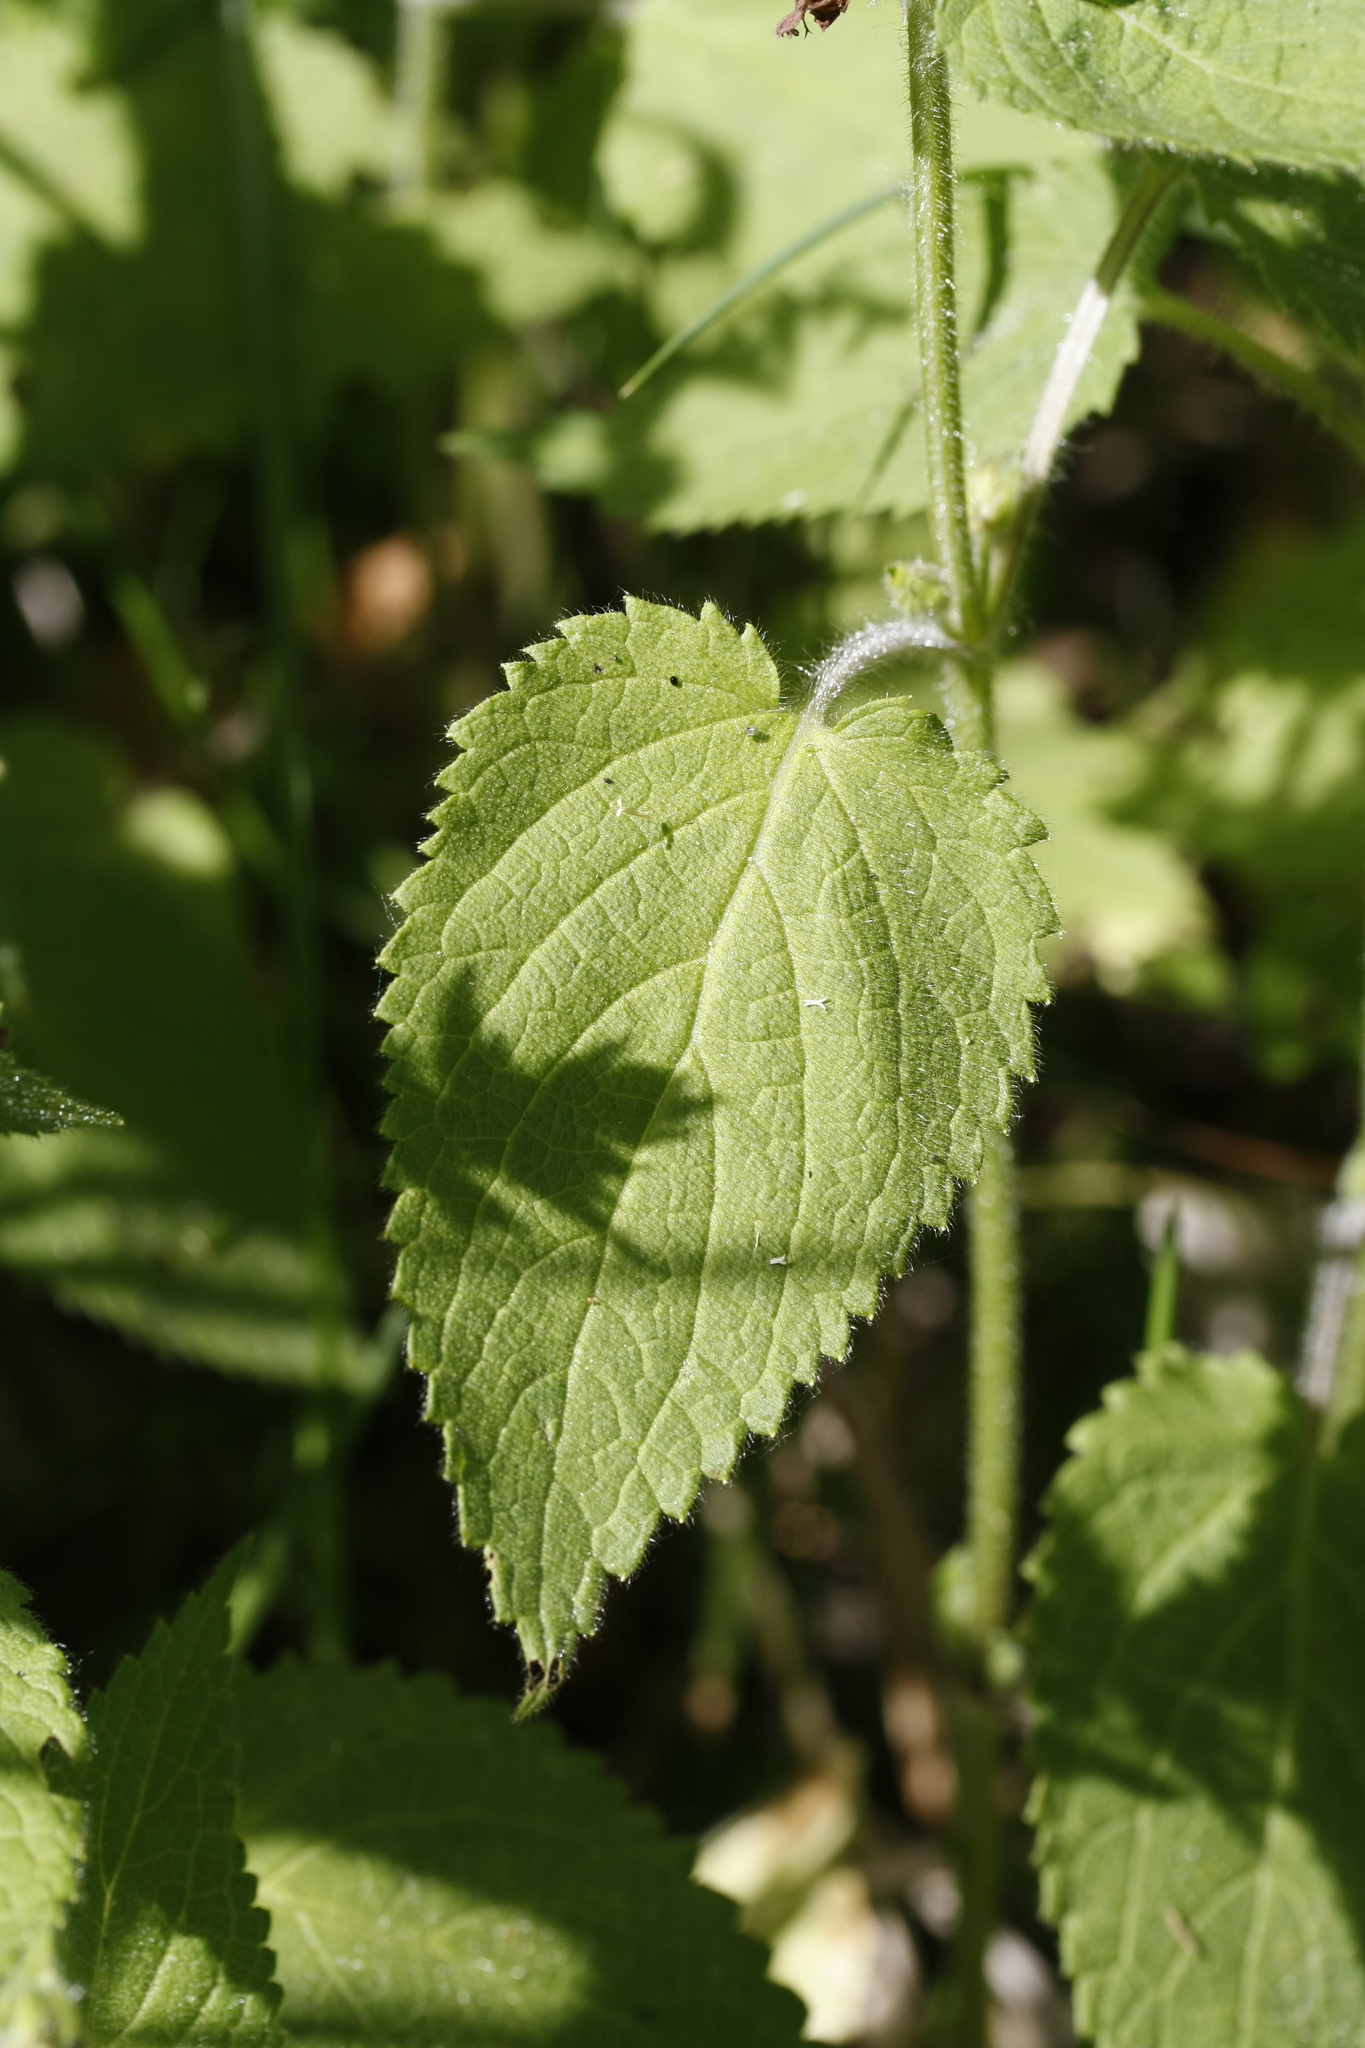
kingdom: Plantae
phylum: Tracheophyta
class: Magnoliopsida
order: Lamiales
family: Lamiaceae
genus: Stachys
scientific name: Stachys sylvatica
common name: Hedge woundwort
